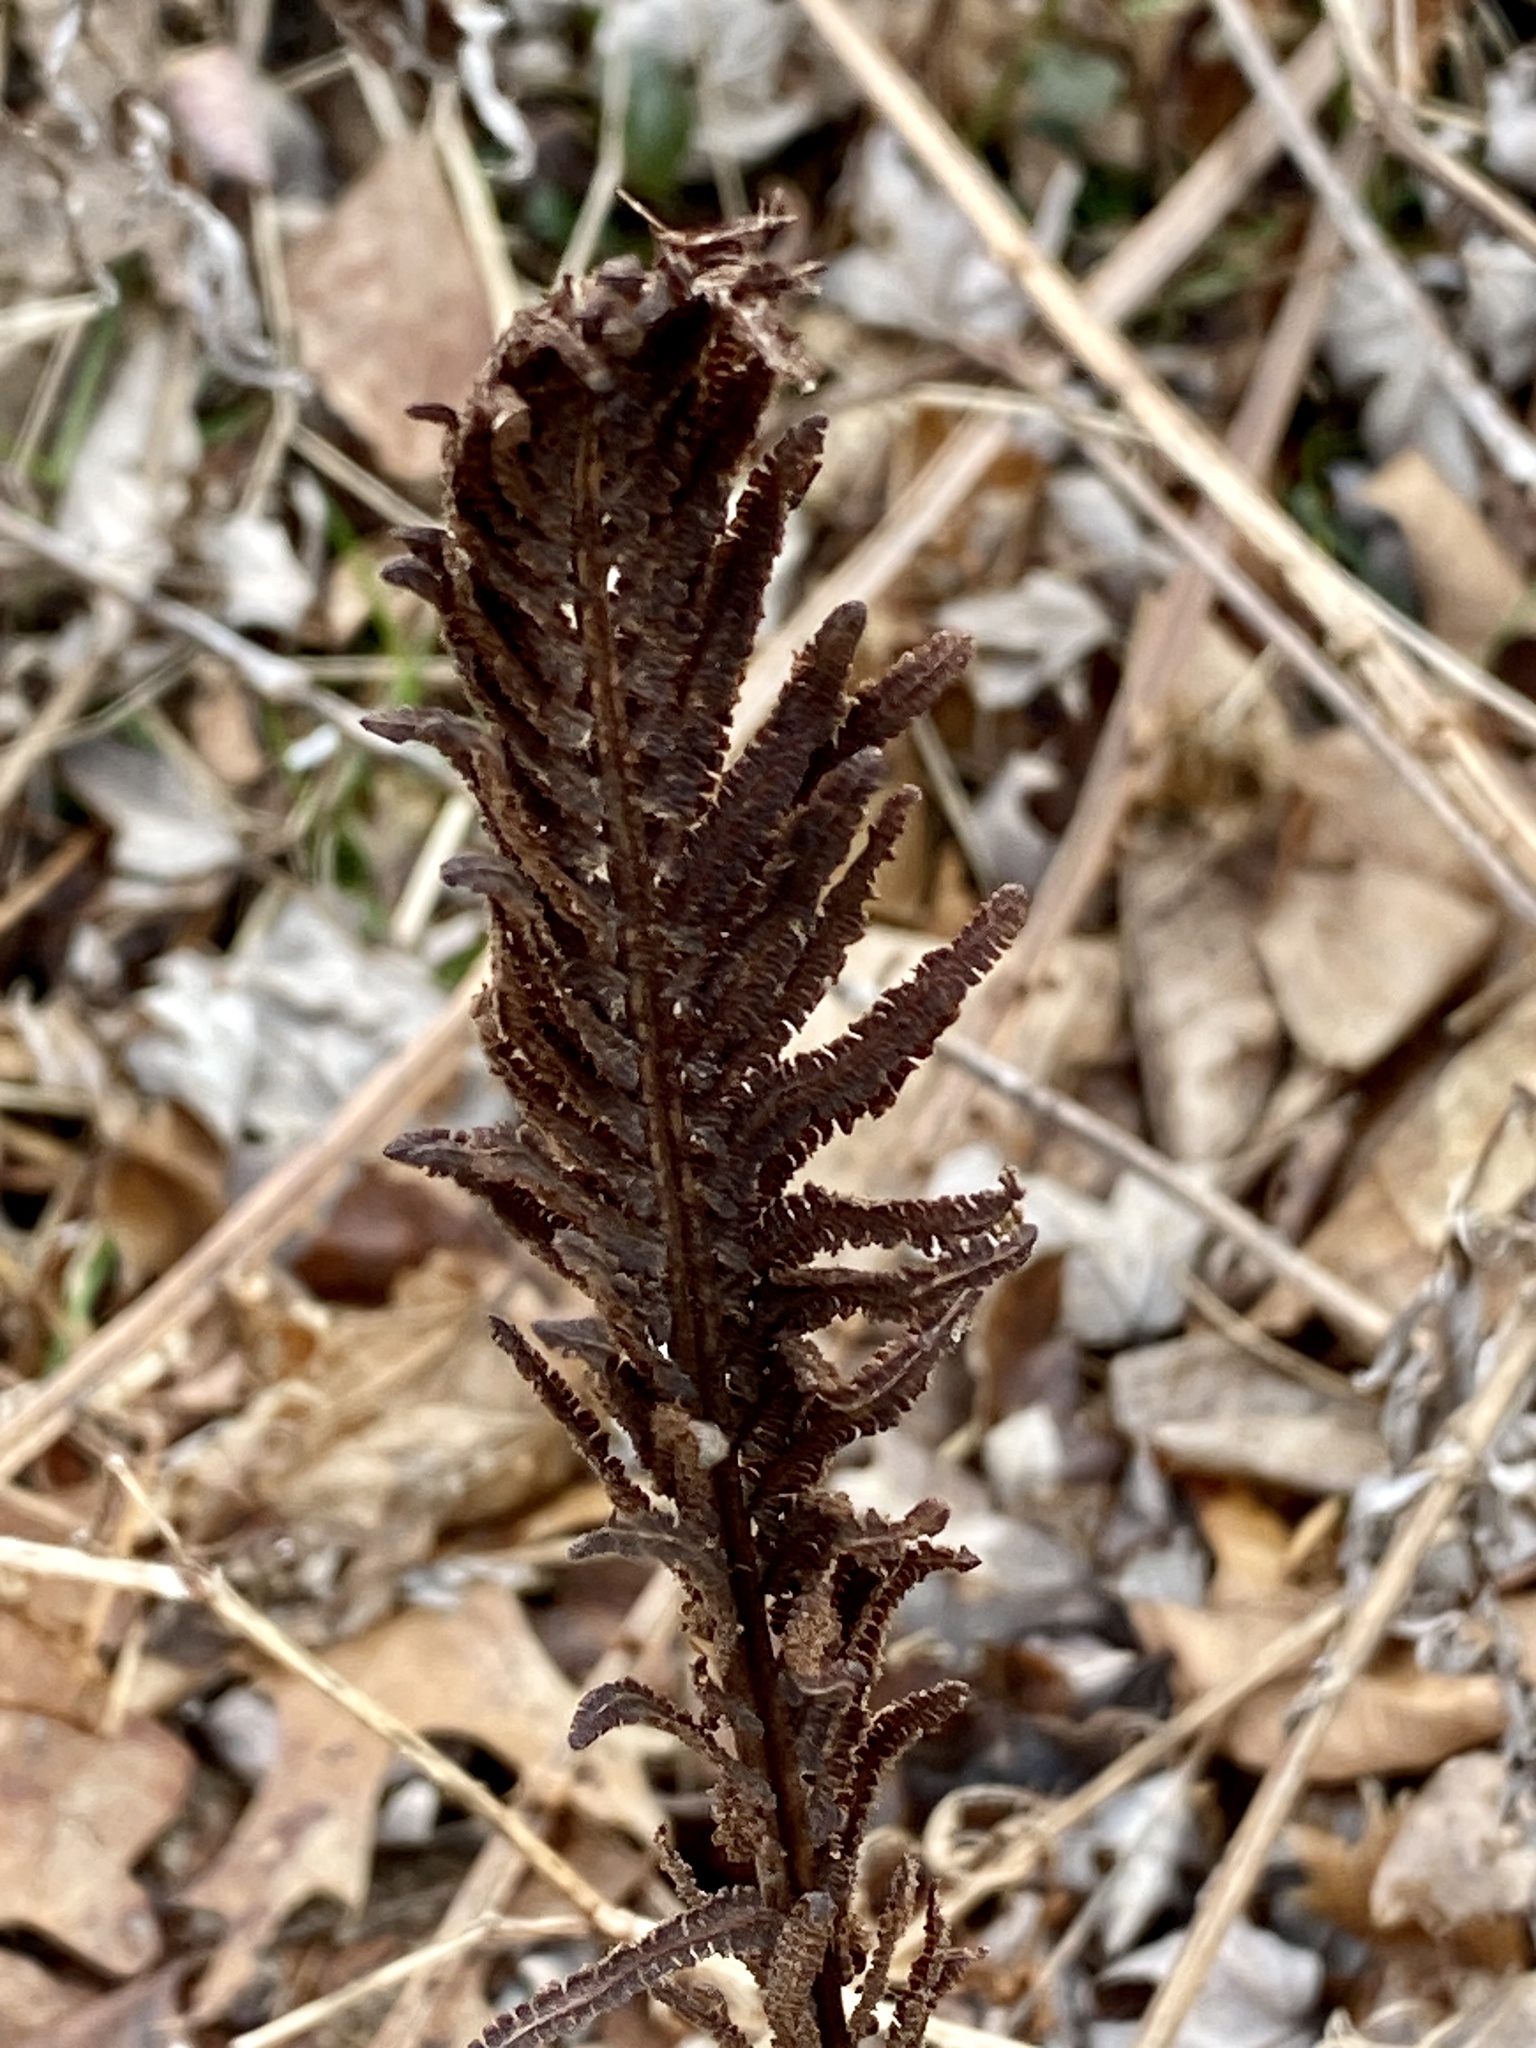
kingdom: Plantae
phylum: Tracheophyta
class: Polypodiopsida
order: Polypodiales
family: Onocleaceae
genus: Matteuccia
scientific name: Matteuccia struthiopteris
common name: Ostrich fern
